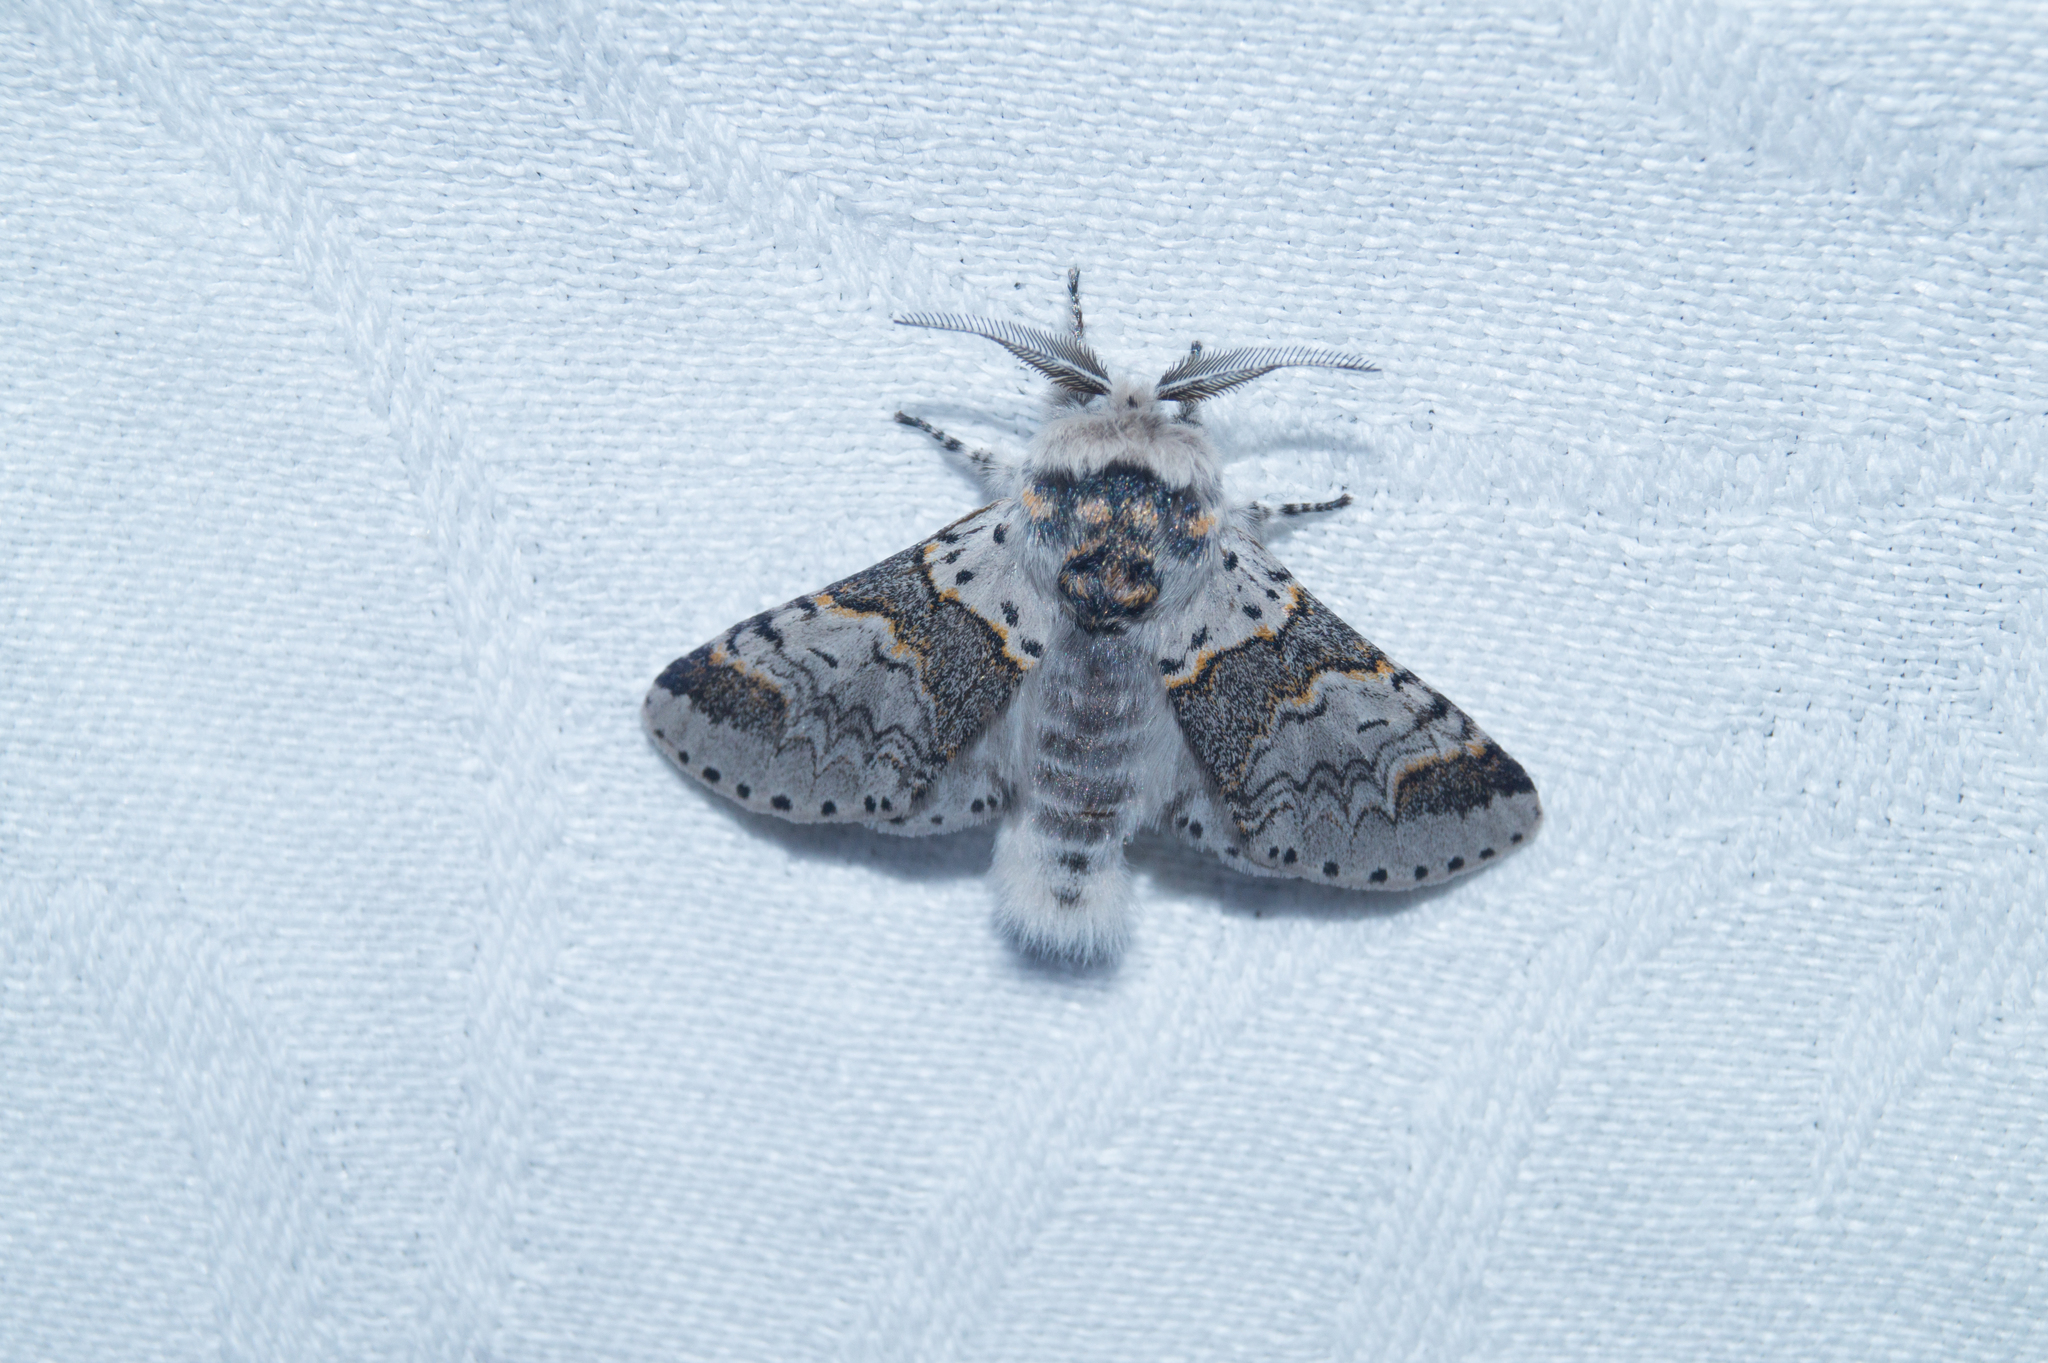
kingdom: Animalia
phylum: Arthropoda
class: Insecta
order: Lepidoptera
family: Notodontidae
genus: Furcula
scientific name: Furcula furcula
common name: Sallow kitten
